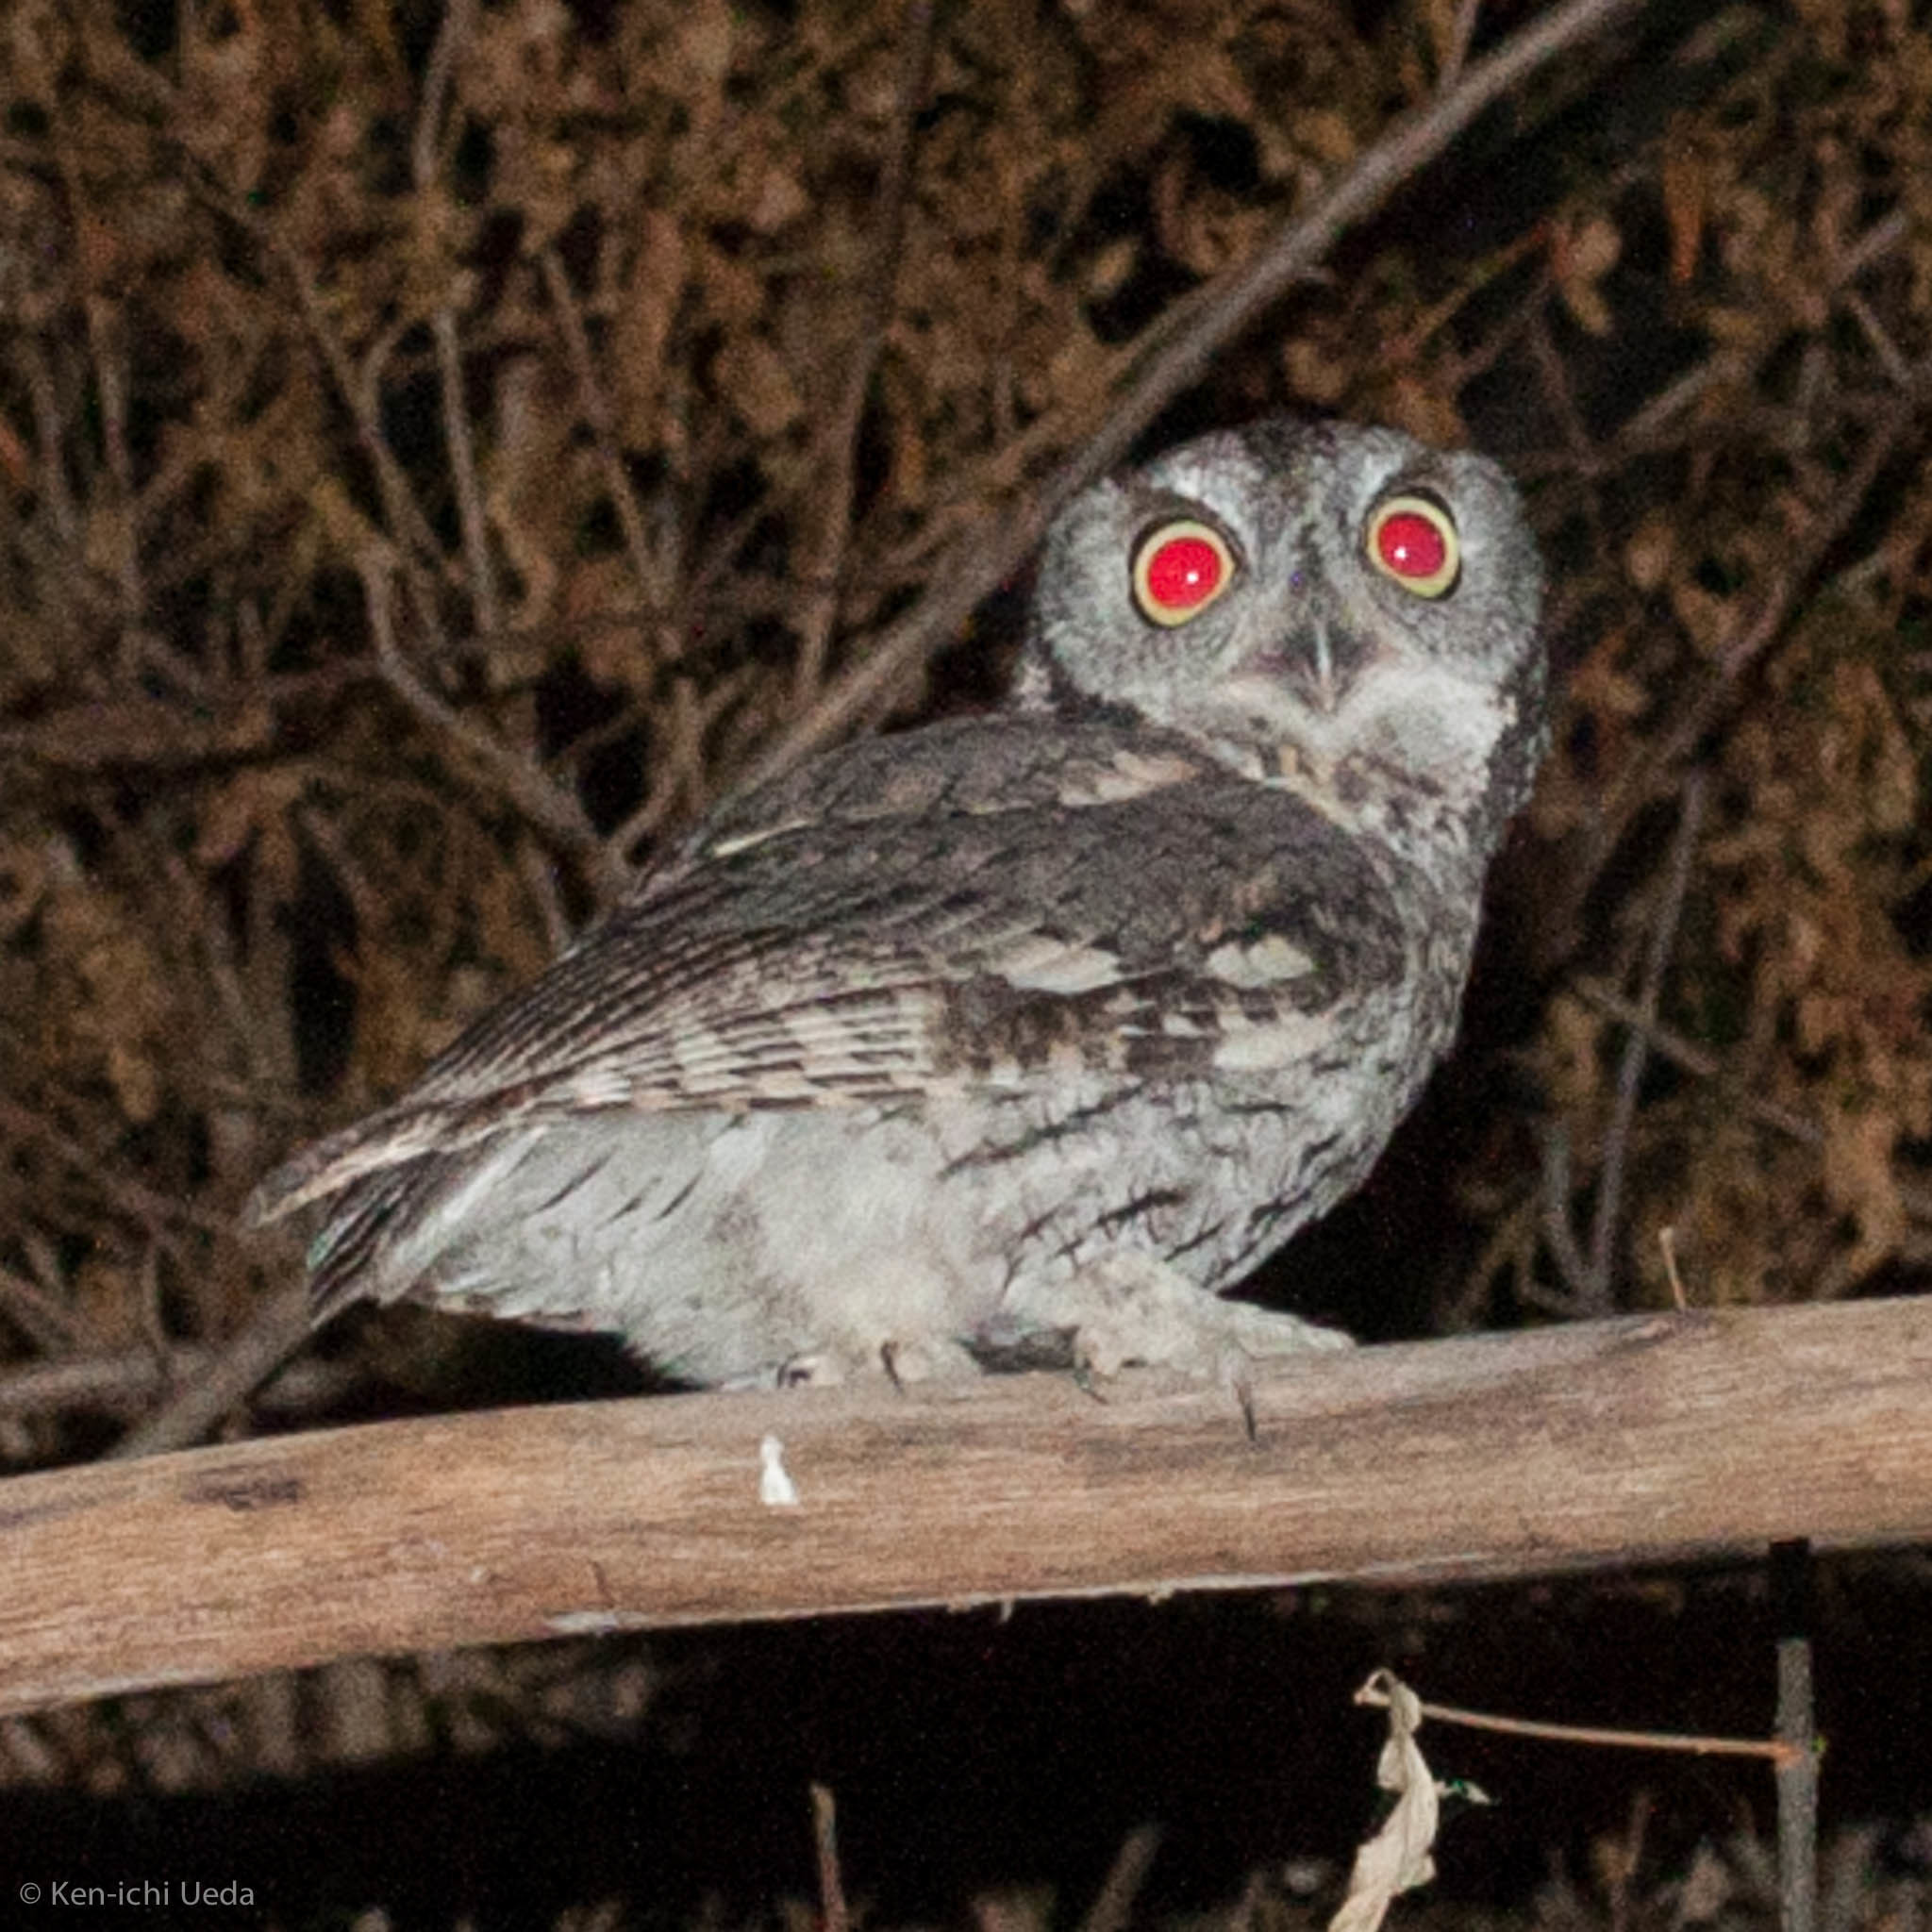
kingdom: Animalia
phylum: Chordata
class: Aves
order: Strigiformes
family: Strigidae
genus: Megascops
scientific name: Megascops kennicottii
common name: Western screech-owl
